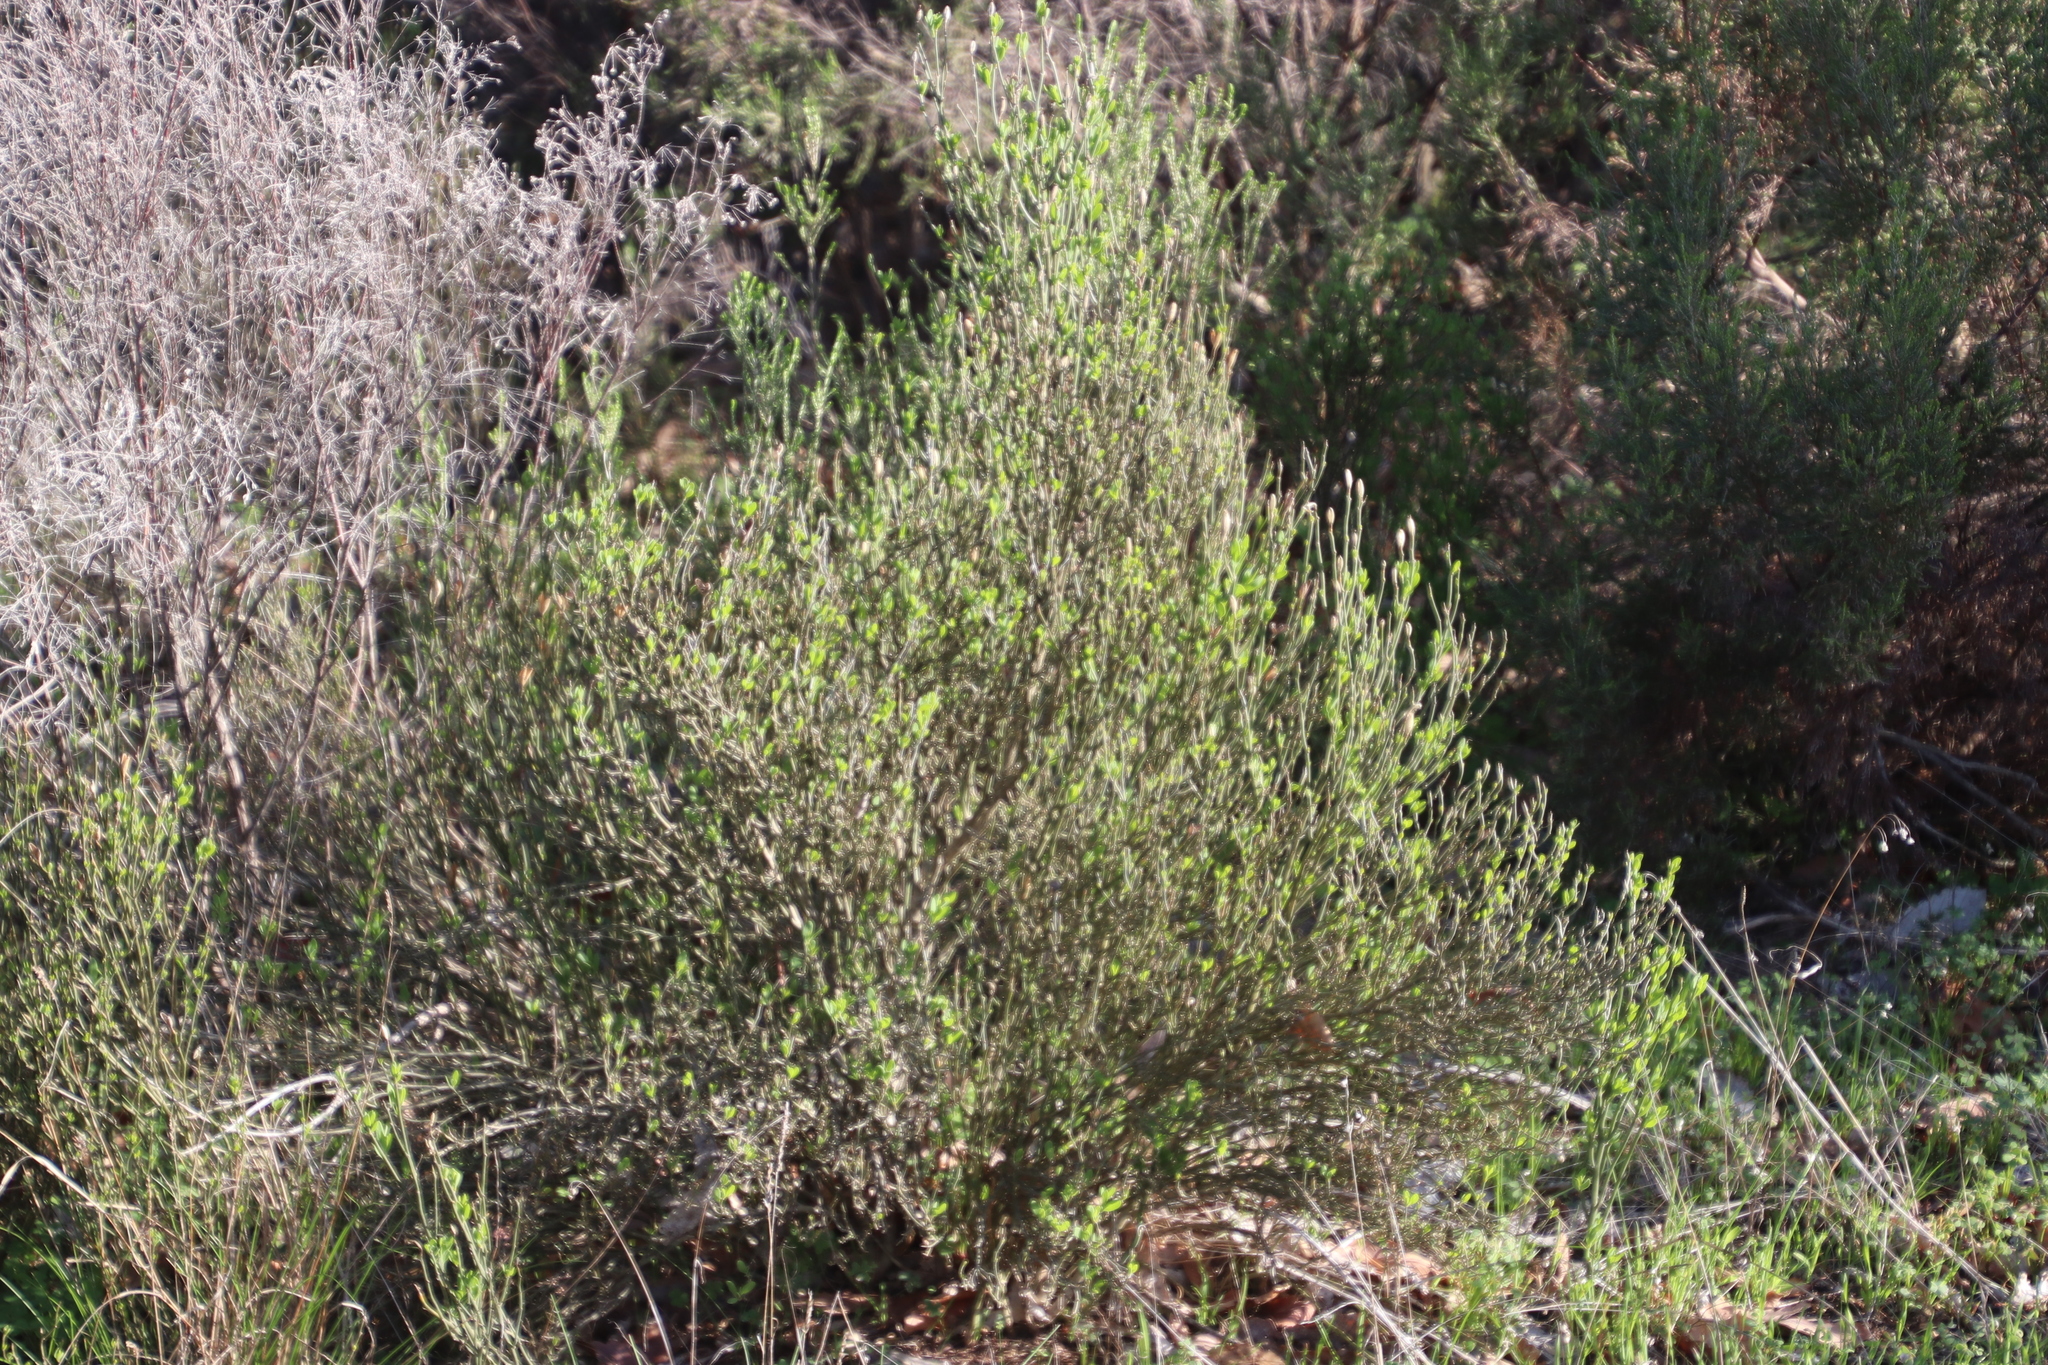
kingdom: Plantae
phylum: Tracheophyta
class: Magnoliopsida
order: Solanales
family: Montiniaceae
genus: Montinia
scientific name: Montinia caryophyllacea
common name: Wild clove-bush
